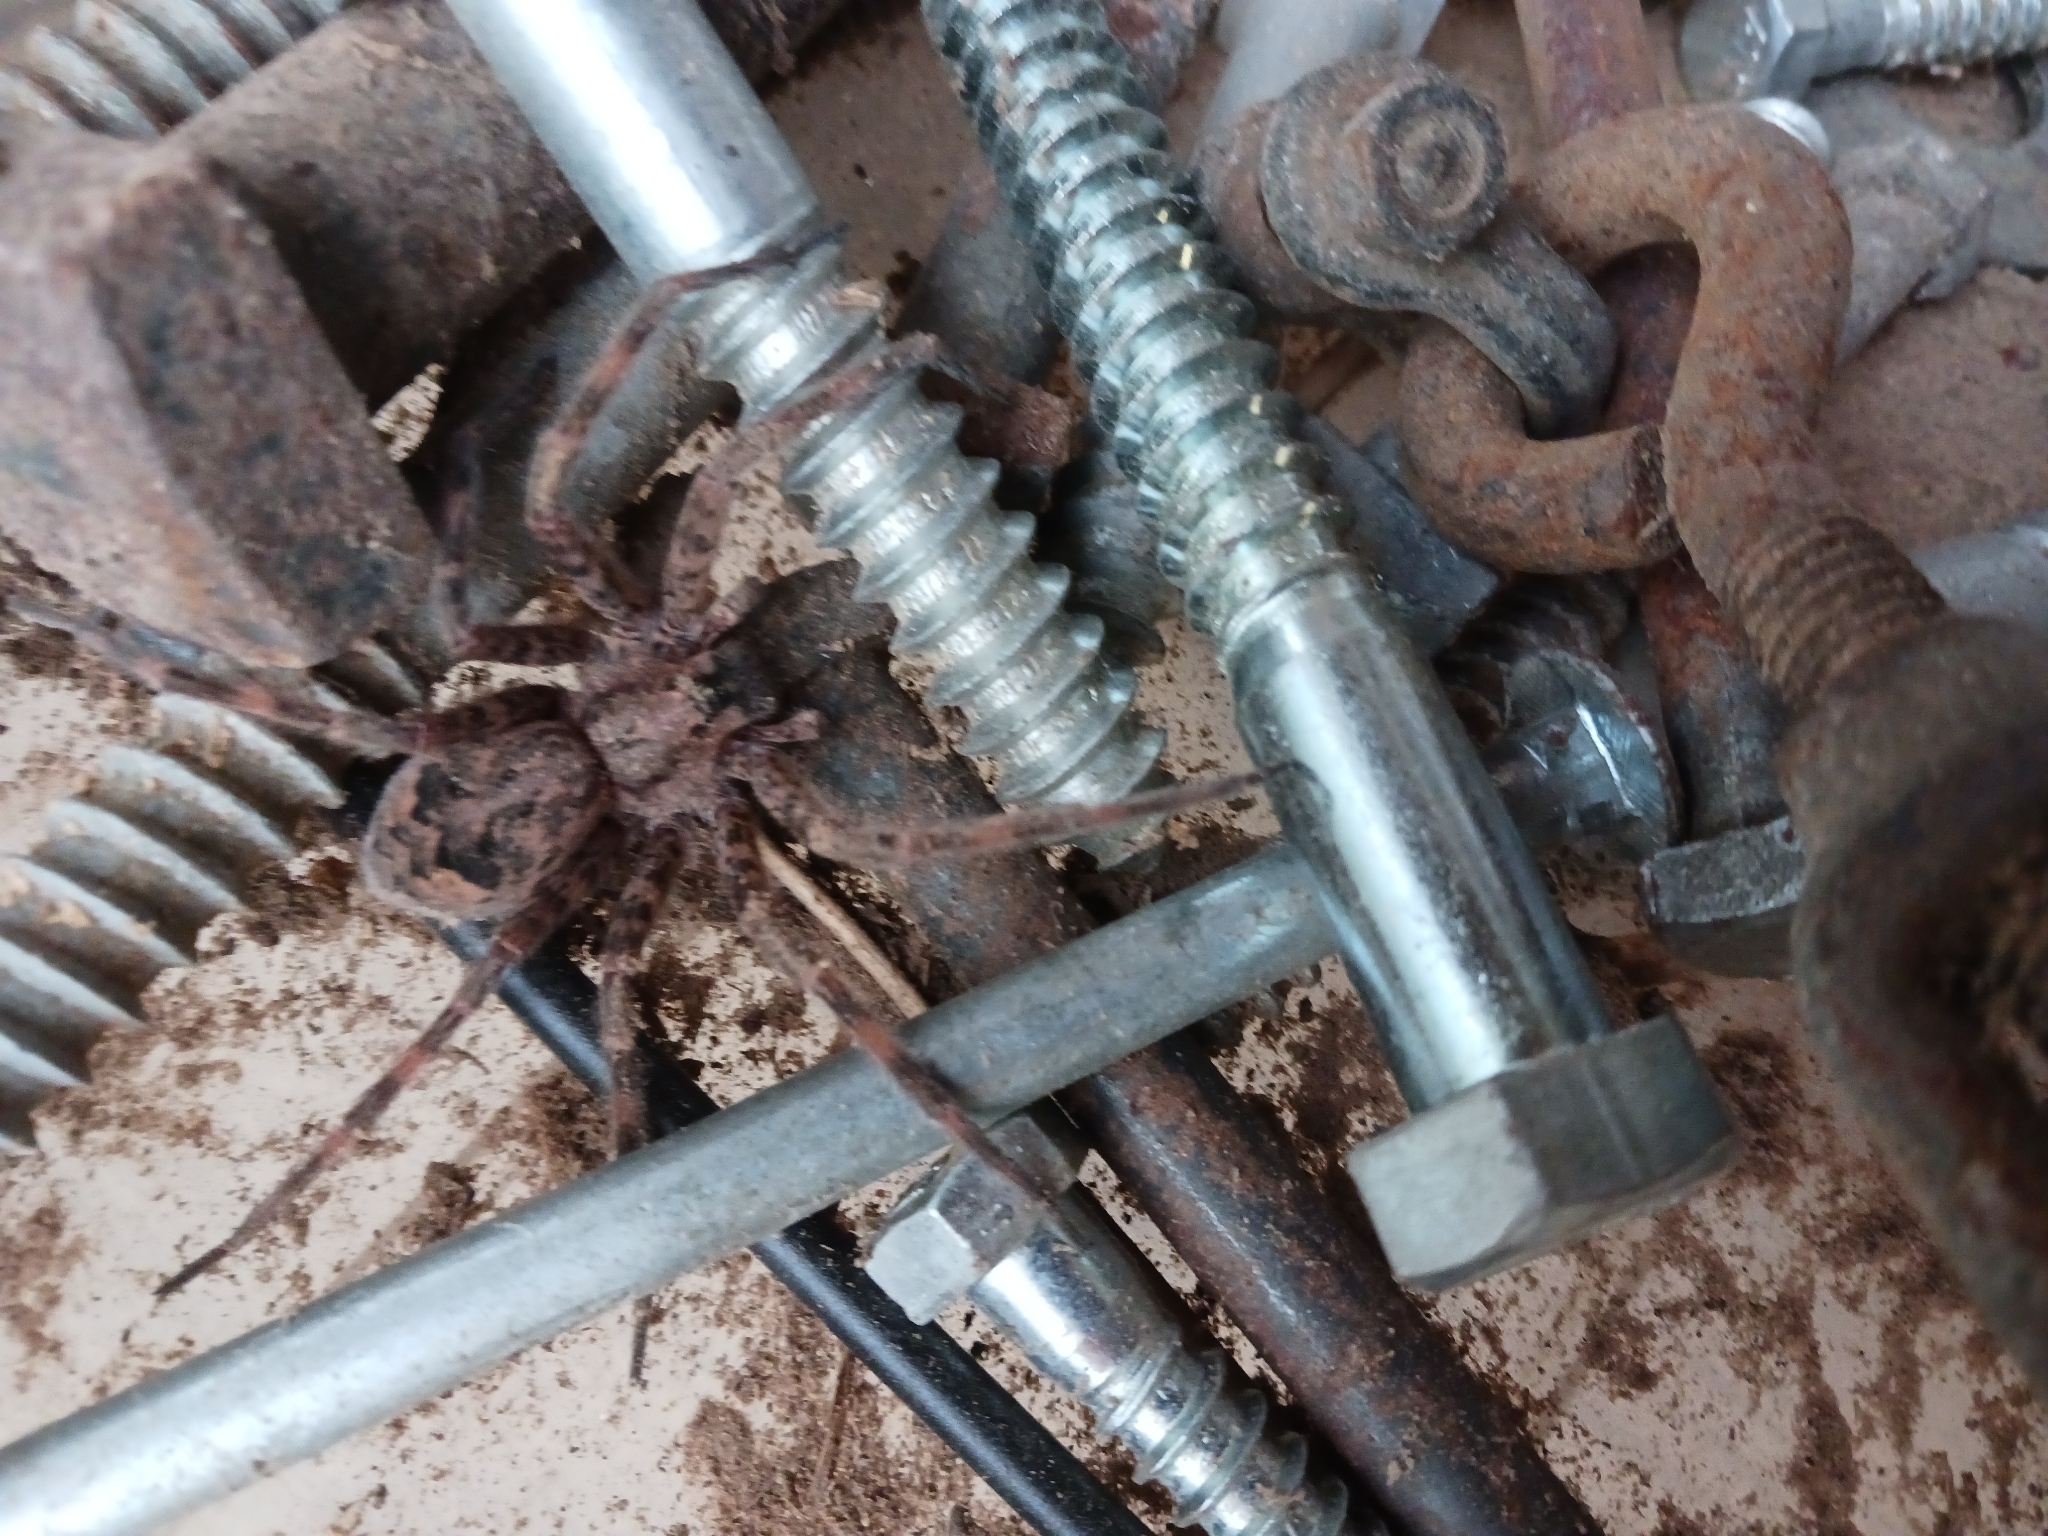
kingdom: Animalia
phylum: Arthropoda
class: Arachnida
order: Araneae
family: Pisauridae
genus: Dolomedes
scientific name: Dolomedes tenebrosus
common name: Dark fishing spider
